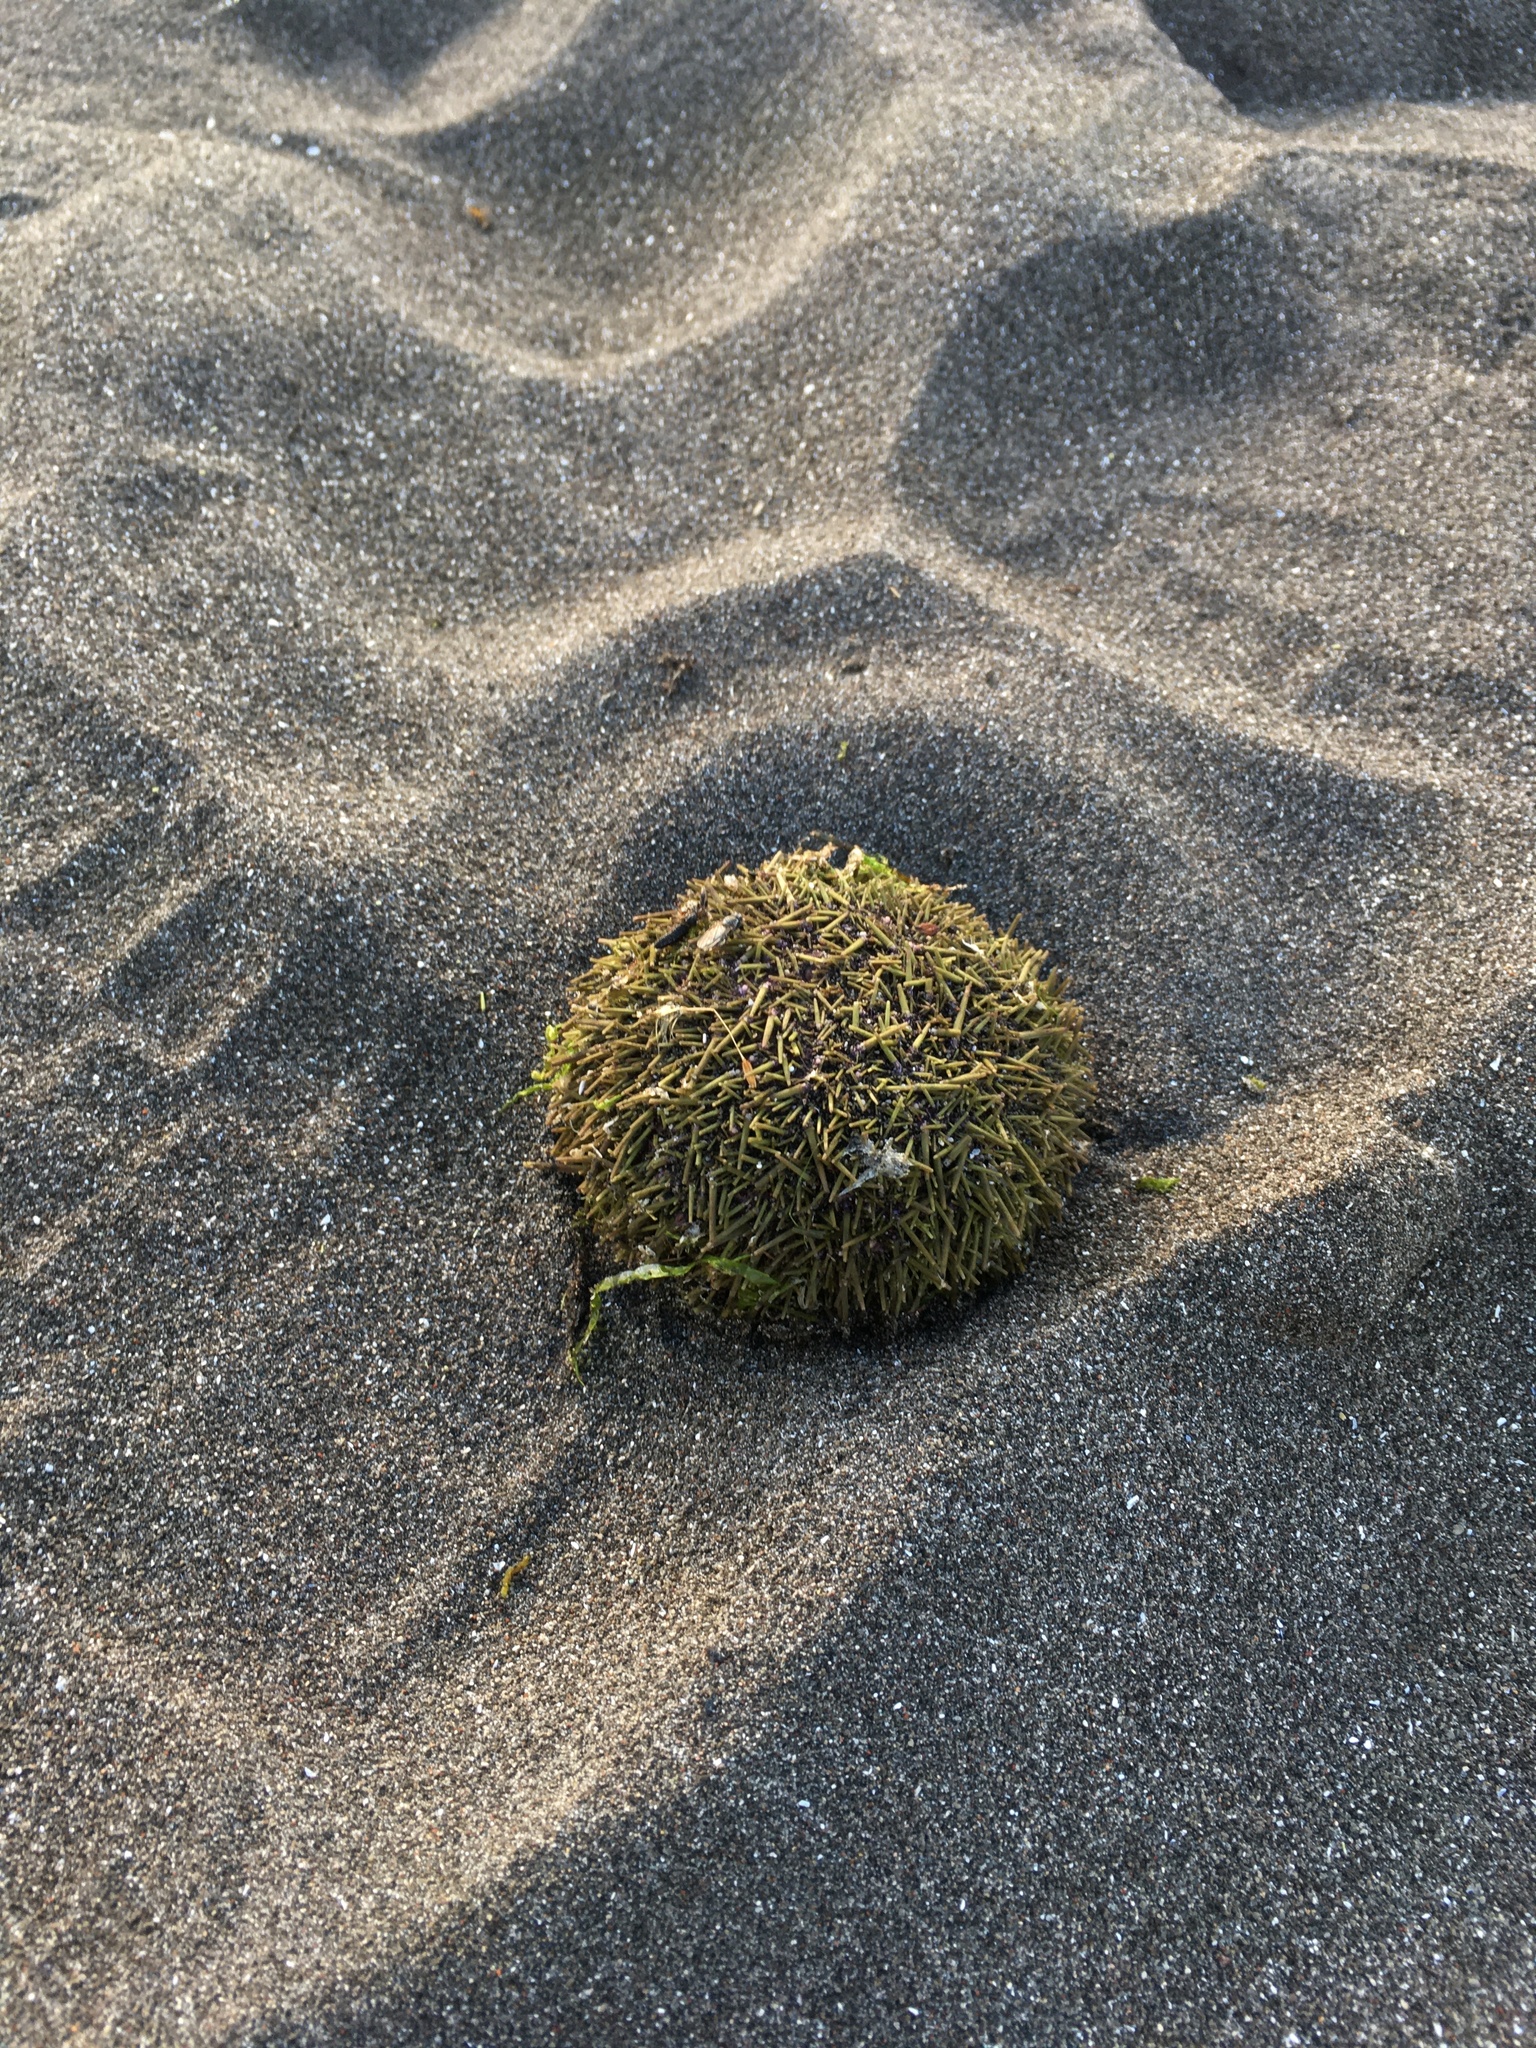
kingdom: Animalia
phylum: Echinodermata
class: Echinoidea
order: Camarodonta
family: Strongylocentrotidae
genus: Strongylocentrotus
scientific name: Strongylocentrotus droebachiensis
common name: Northern sea urchin
